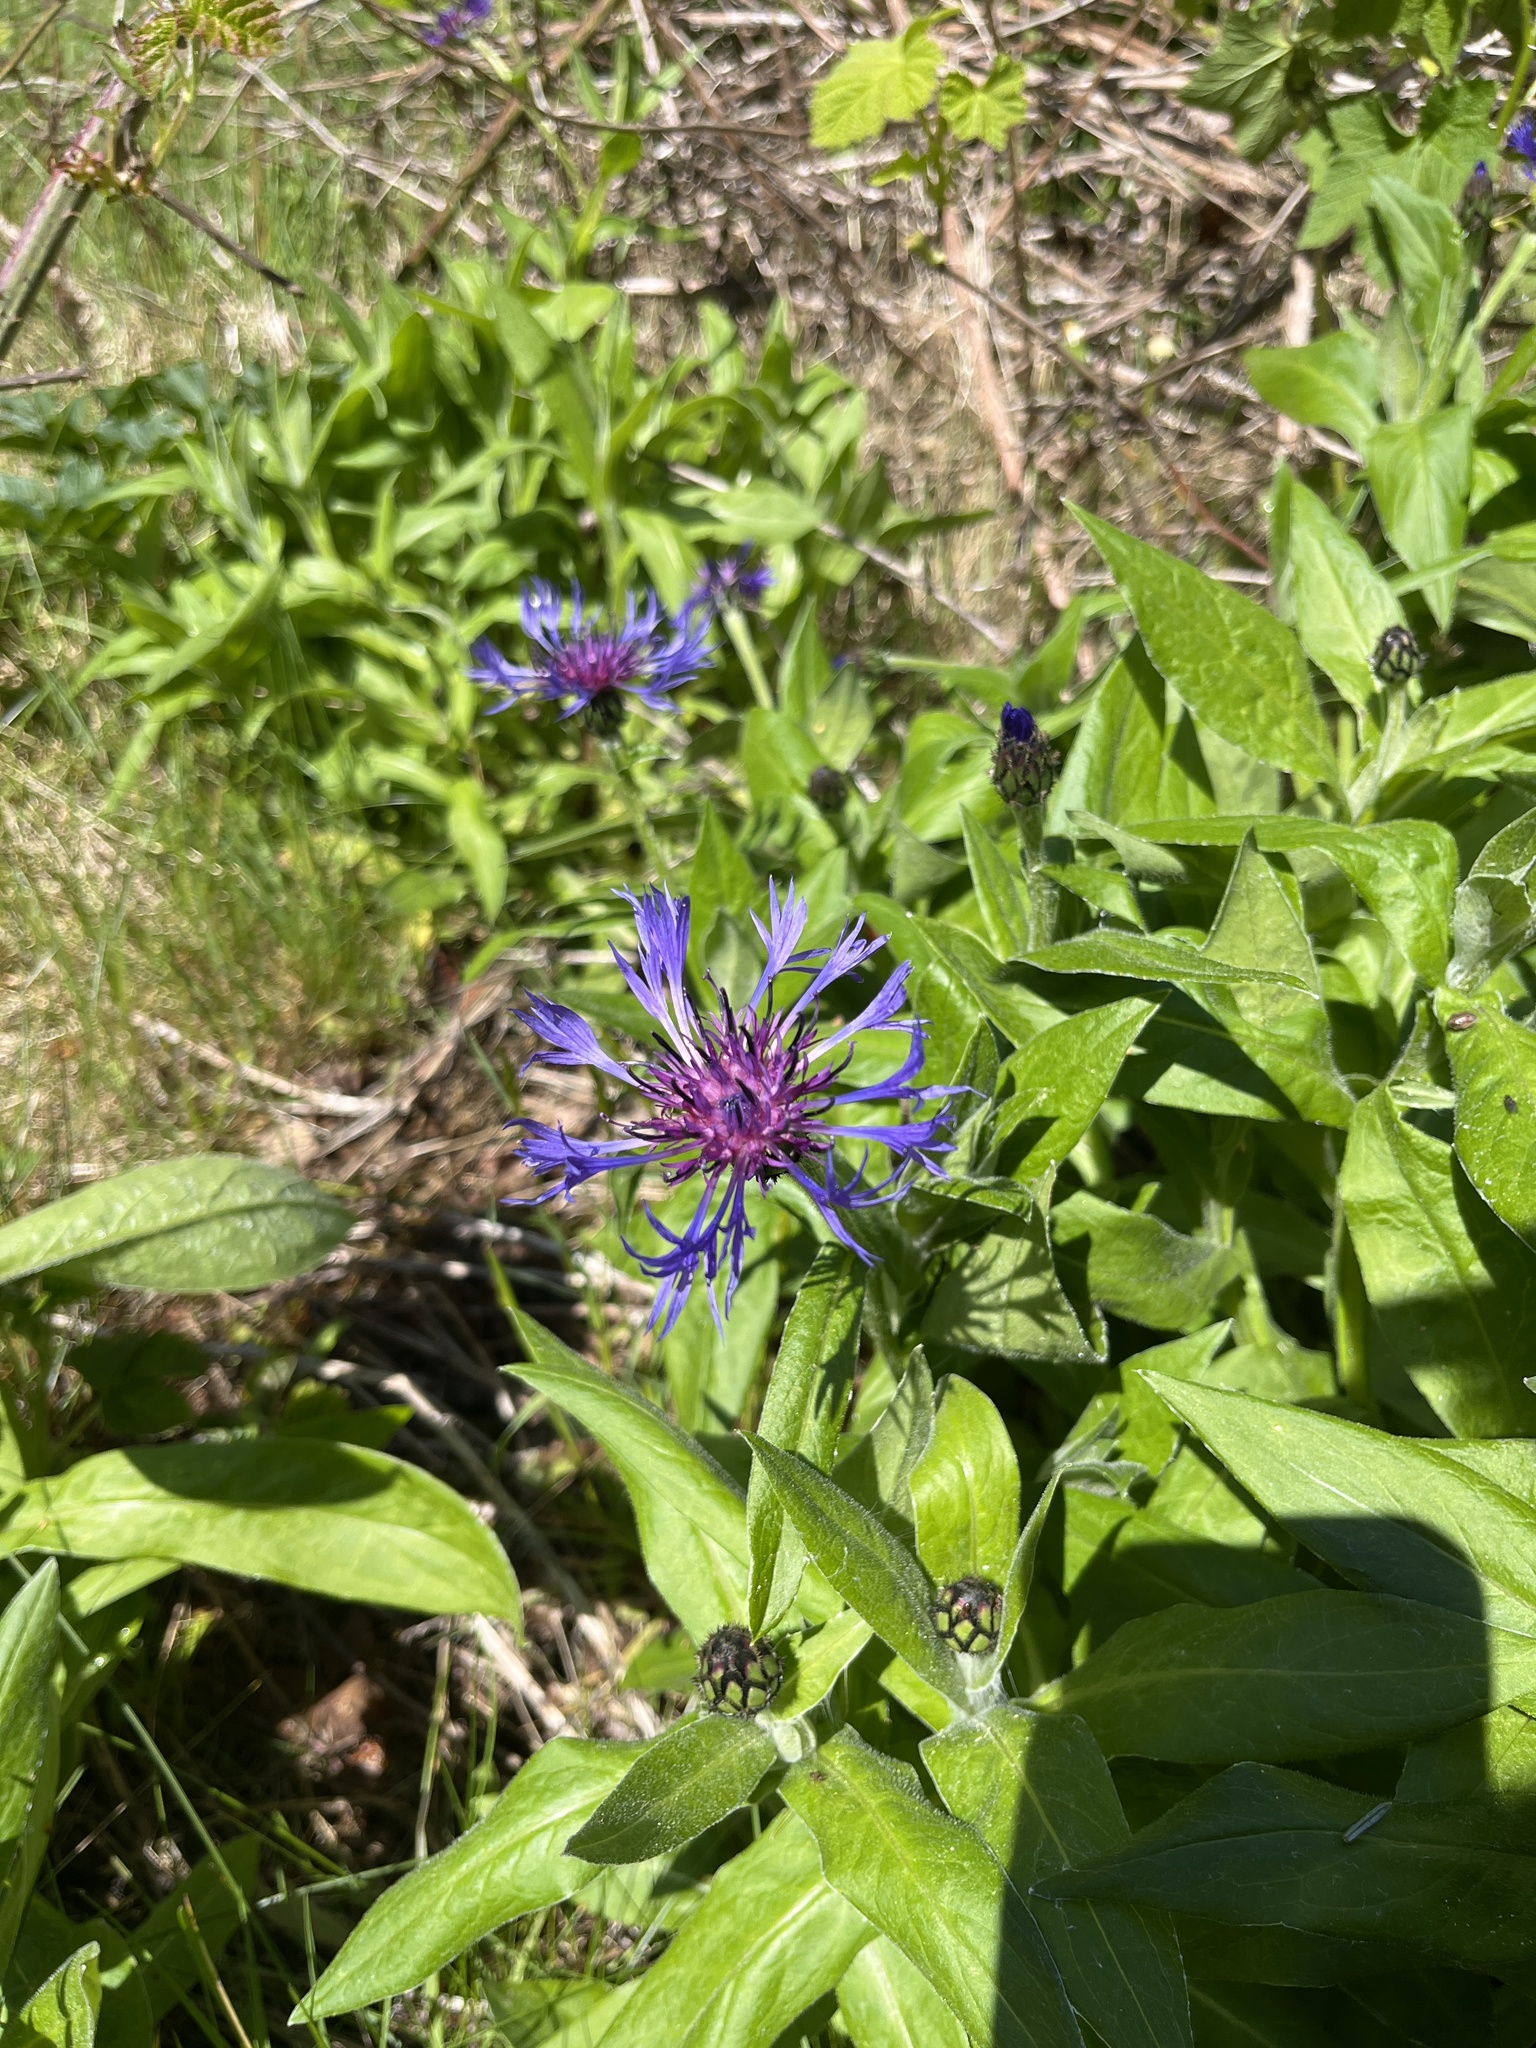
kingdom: Plantae
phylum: Tracheophyta
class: Magnoliopsida
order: Asterales
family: Asteraceae
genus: Centaurea
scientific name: Centaurea montana
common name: Perennial cornflower
